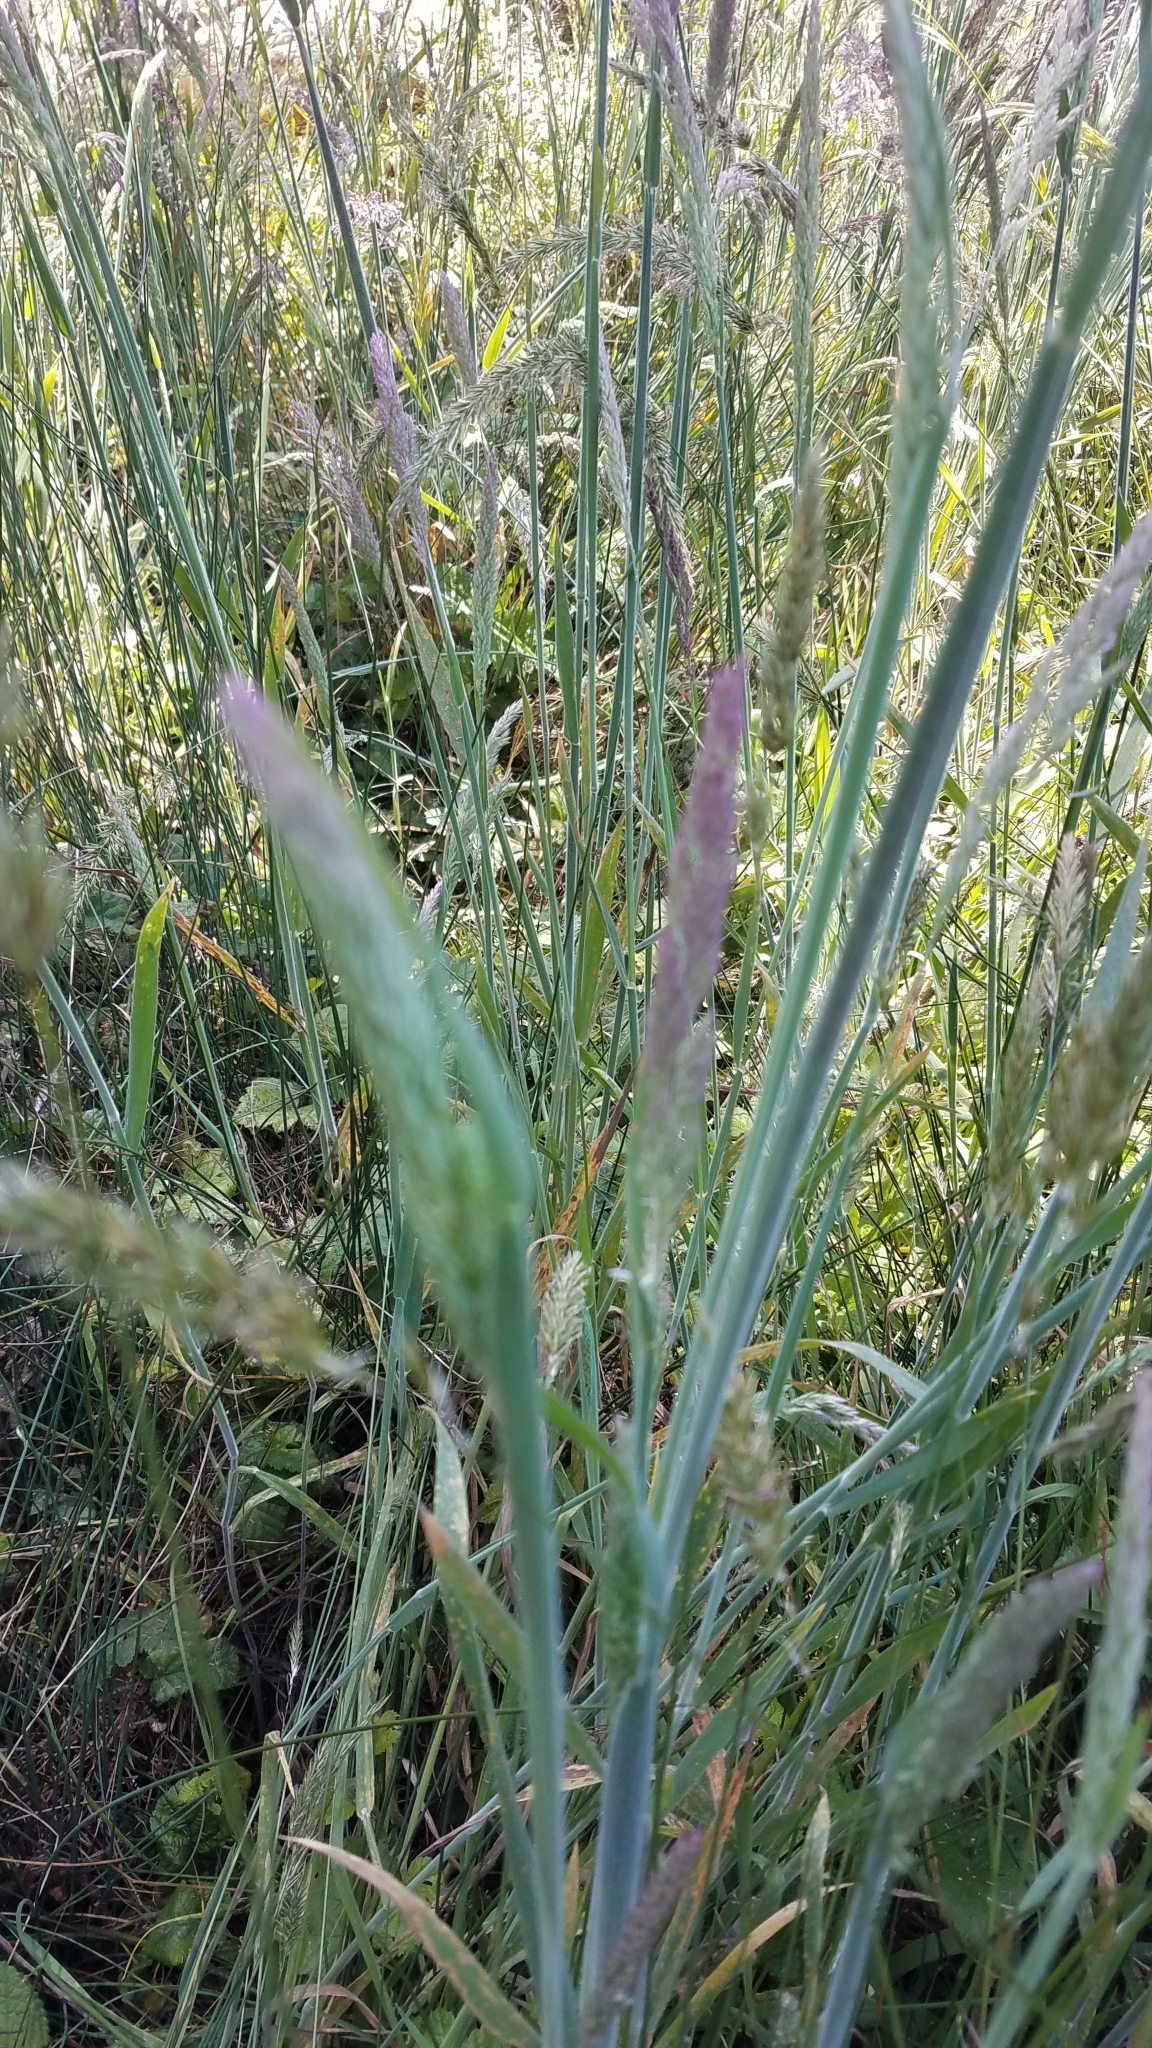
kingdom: Plantae
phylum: Tracheophyta
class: Liliopsida
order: Poales
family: Poaceae
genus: Holcus
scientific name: Holcus lanatus
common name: Yorkshire-fog
